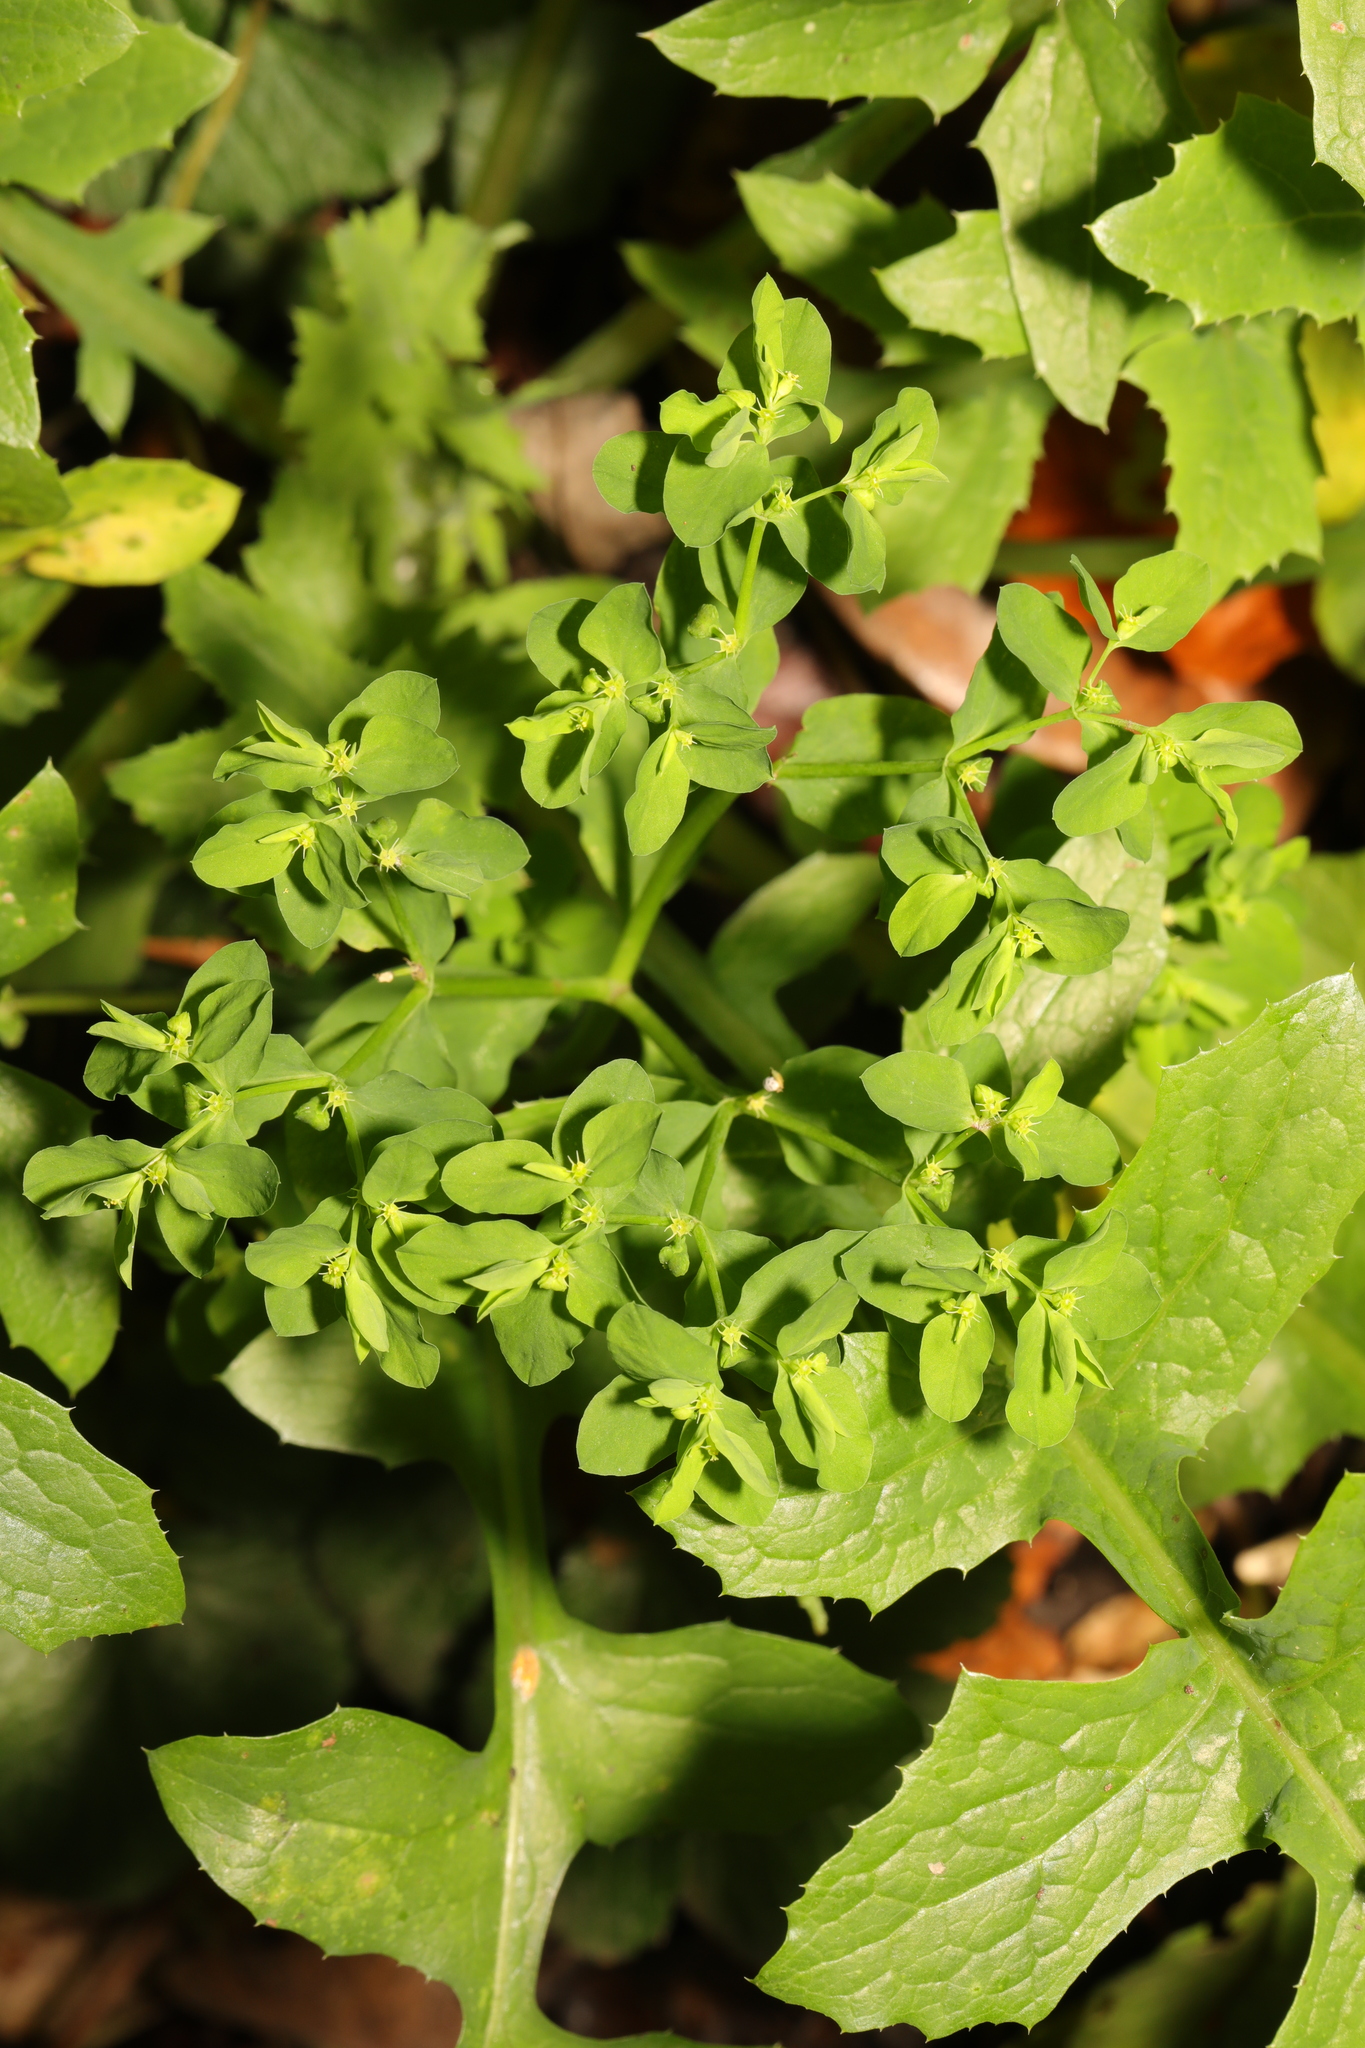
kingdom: Plantae
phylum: Tracheophyta
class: Magnoliopsida
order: Malpighiales
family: Euphorbiaceae
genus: Euphorbia
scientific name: Euphorbia peplus
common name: Petty spurge
